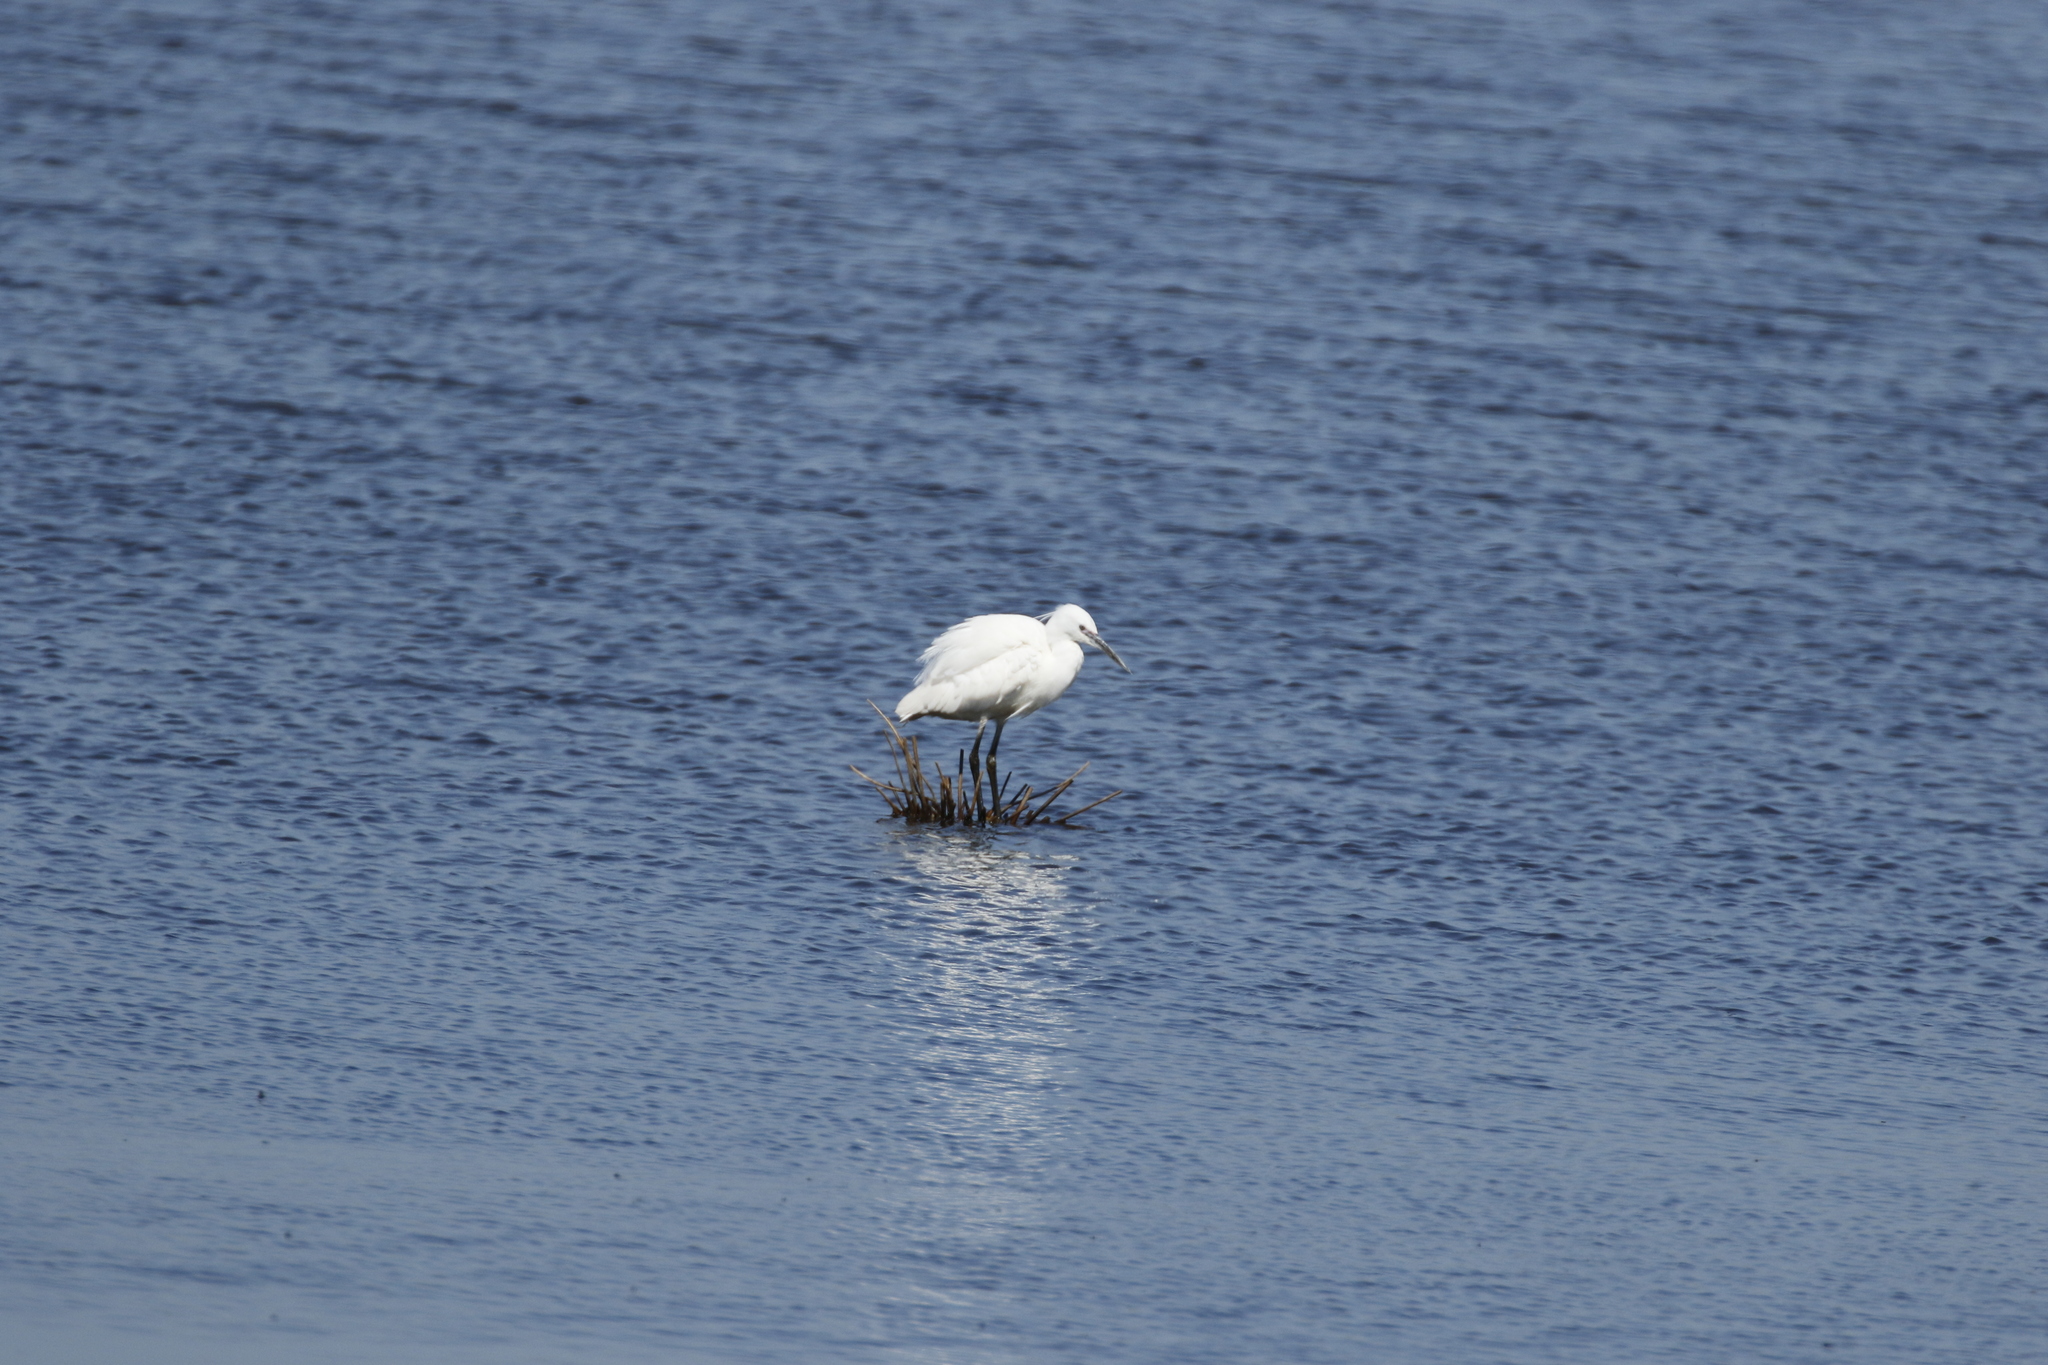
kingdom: Animalia
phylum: Chordata
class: Aves
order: Pelecaniformes
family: Ardeidae
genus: Egretta
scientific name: Egretta garzetta
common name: Little egret
